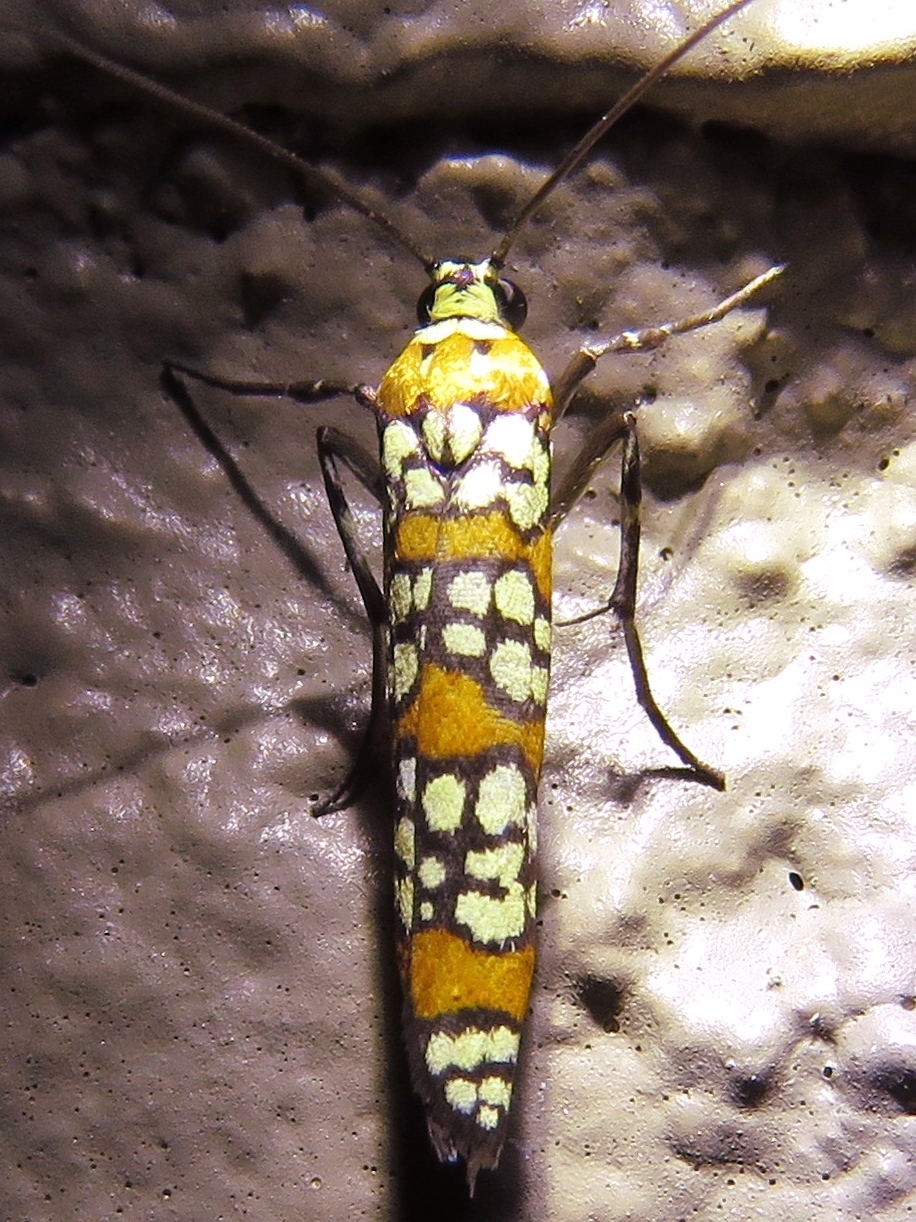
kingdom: Animalia
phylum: Arthropoda
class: Insecta
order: Lepidoptera
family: Attevidae
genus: Atteva
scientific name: Atteva punctella
